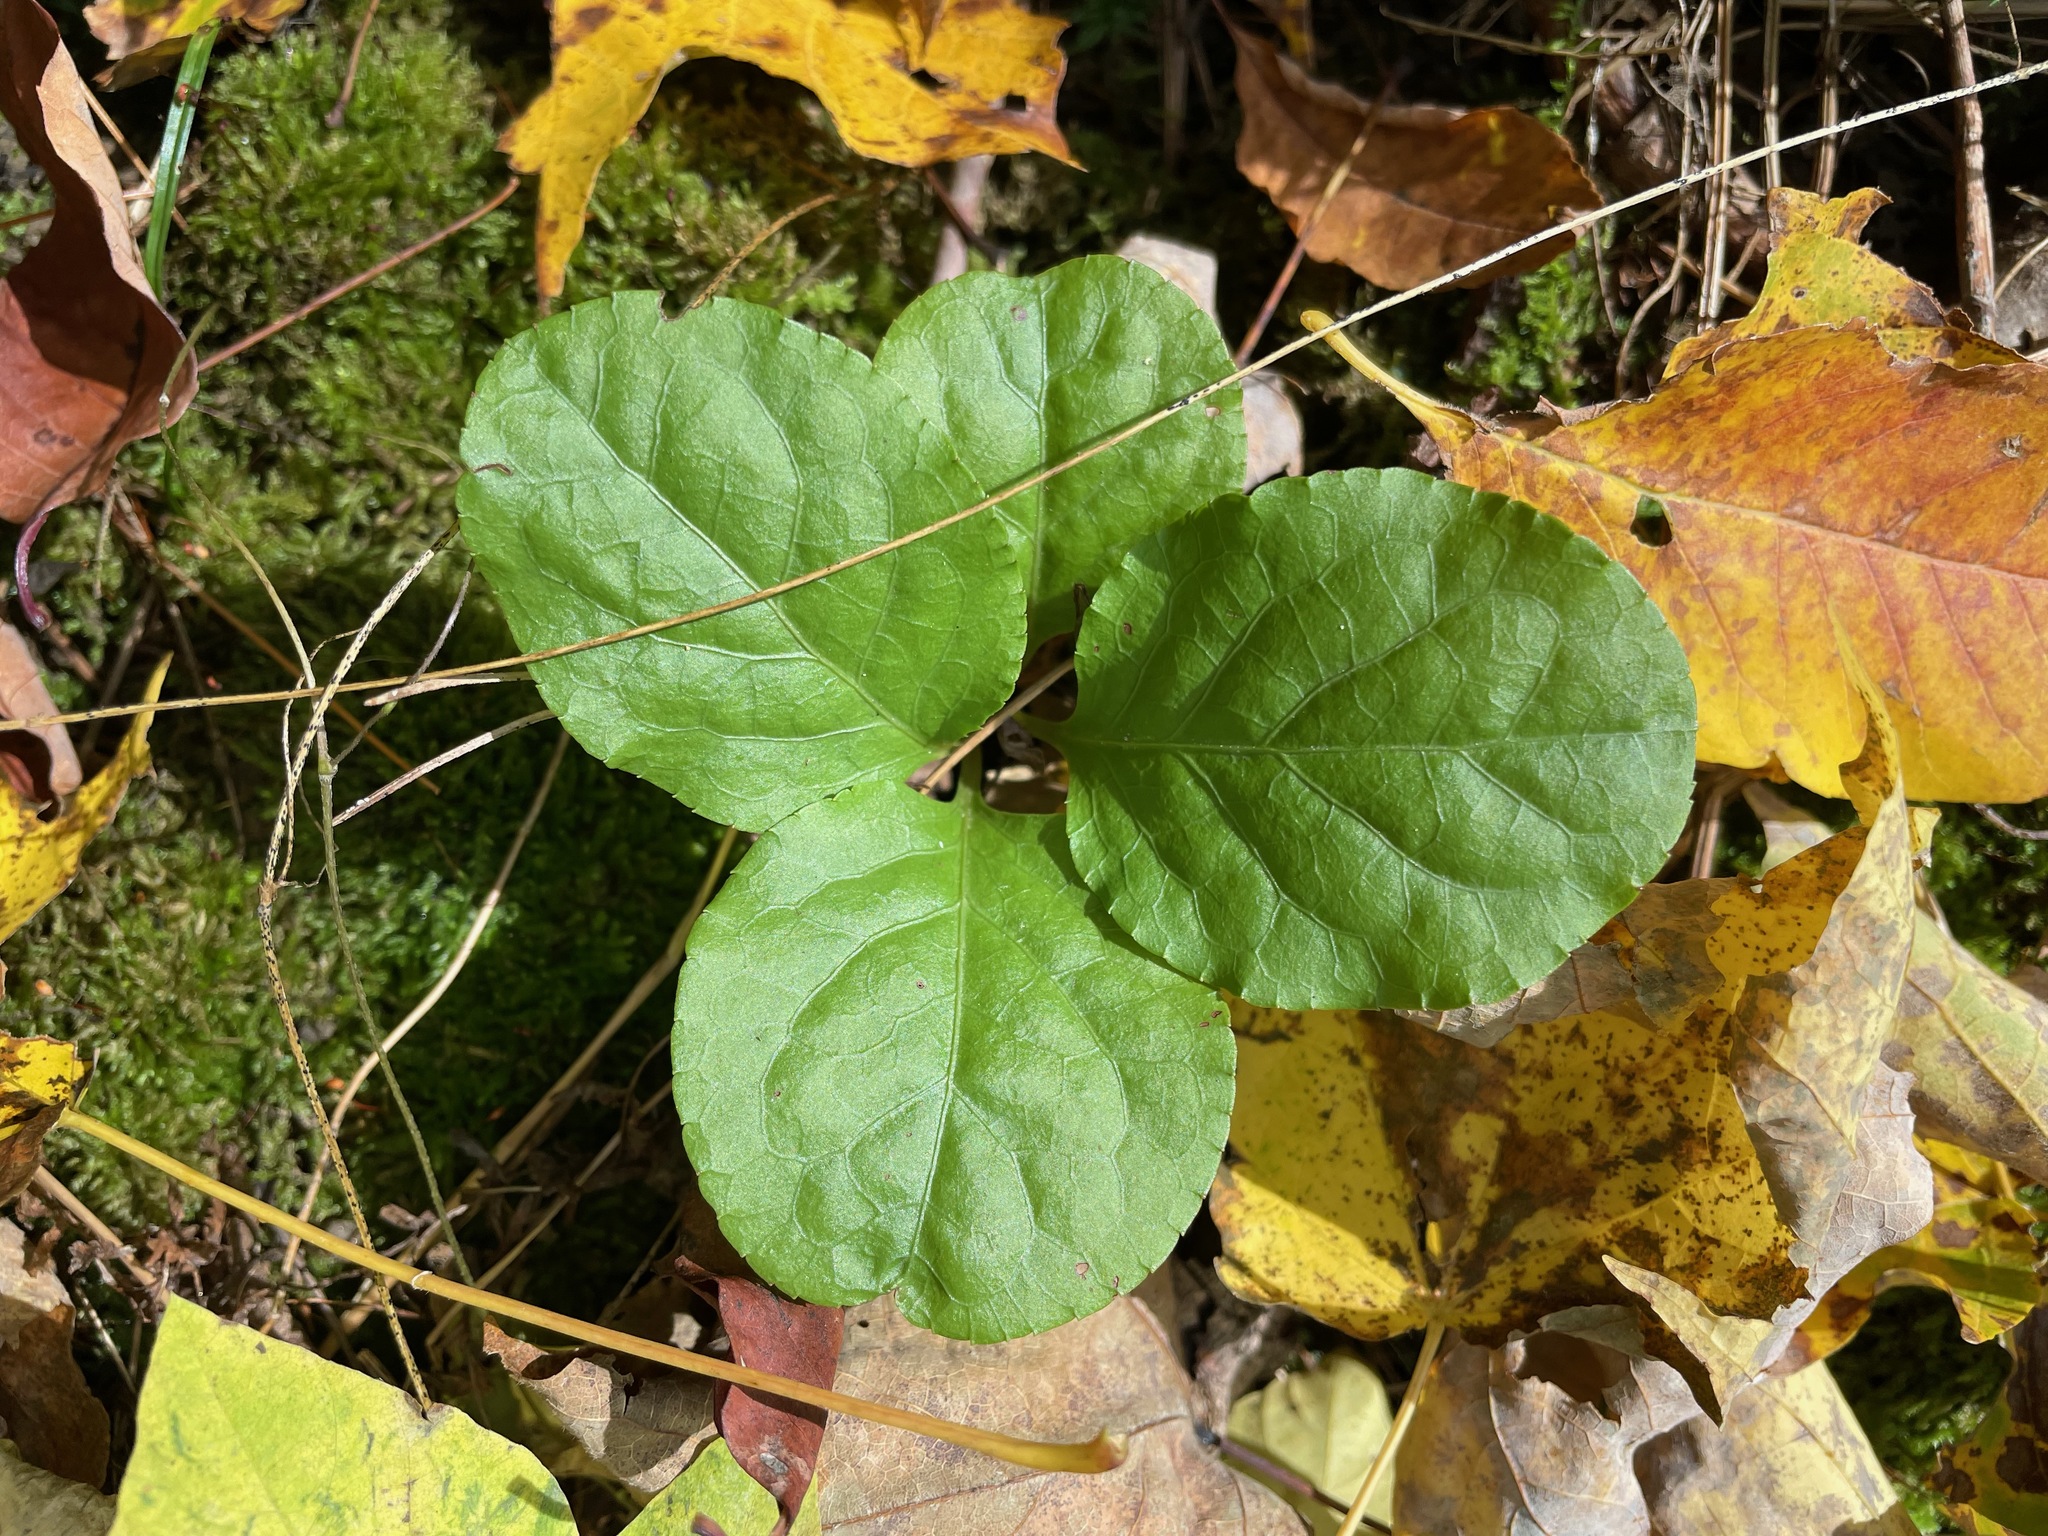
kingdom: Plantae
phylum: Tracheophyta
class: Magnoliopsida
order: Ericales
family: Ericaceae
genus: Pyrola
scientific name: Pyrola elliptica
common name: Shinleaf
